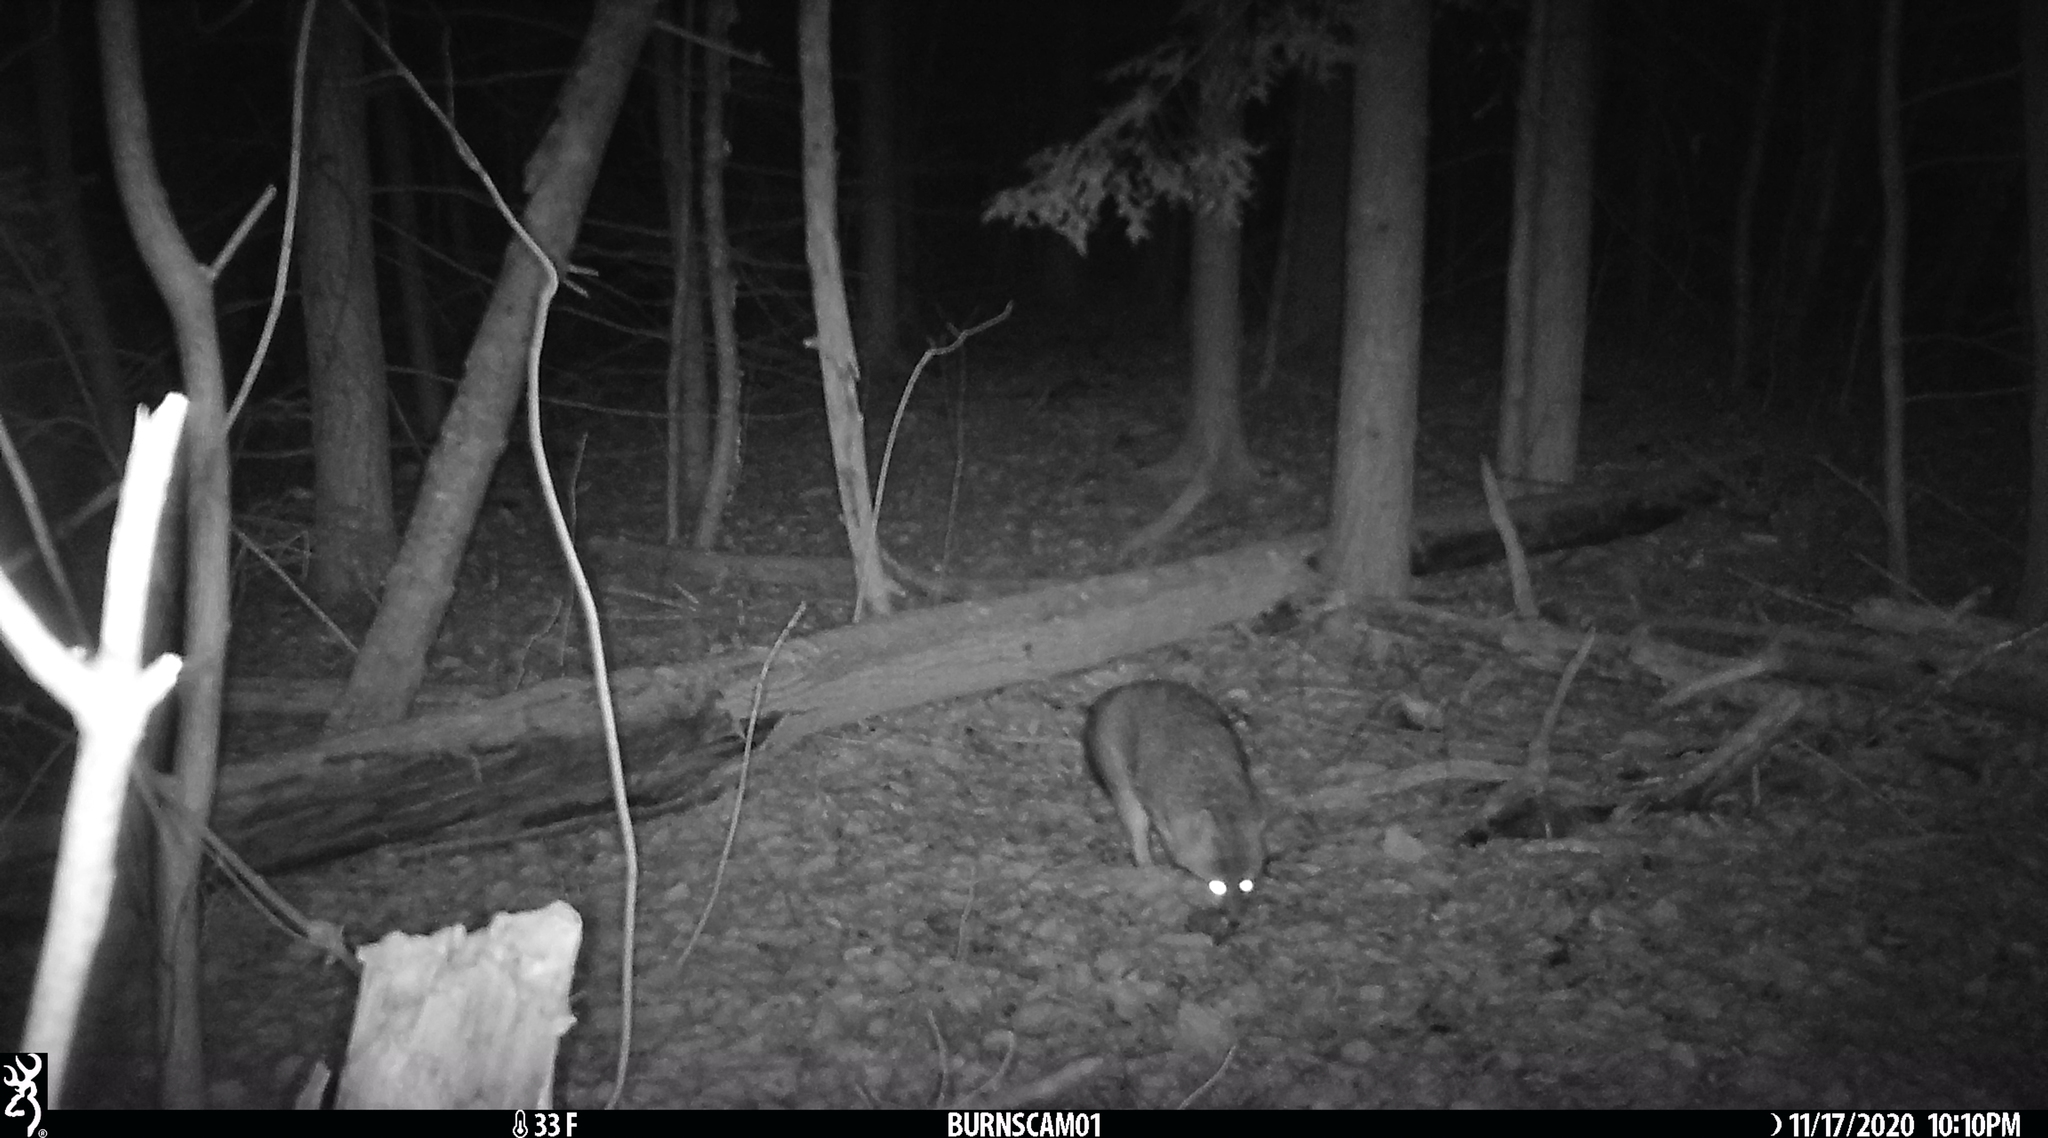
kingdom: Animalia
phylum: Chordata
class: Mammalia
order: Carnivora
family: Canidae
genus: Urocyon
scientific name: Urocyon cinereoargenteus
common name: Gray fox
